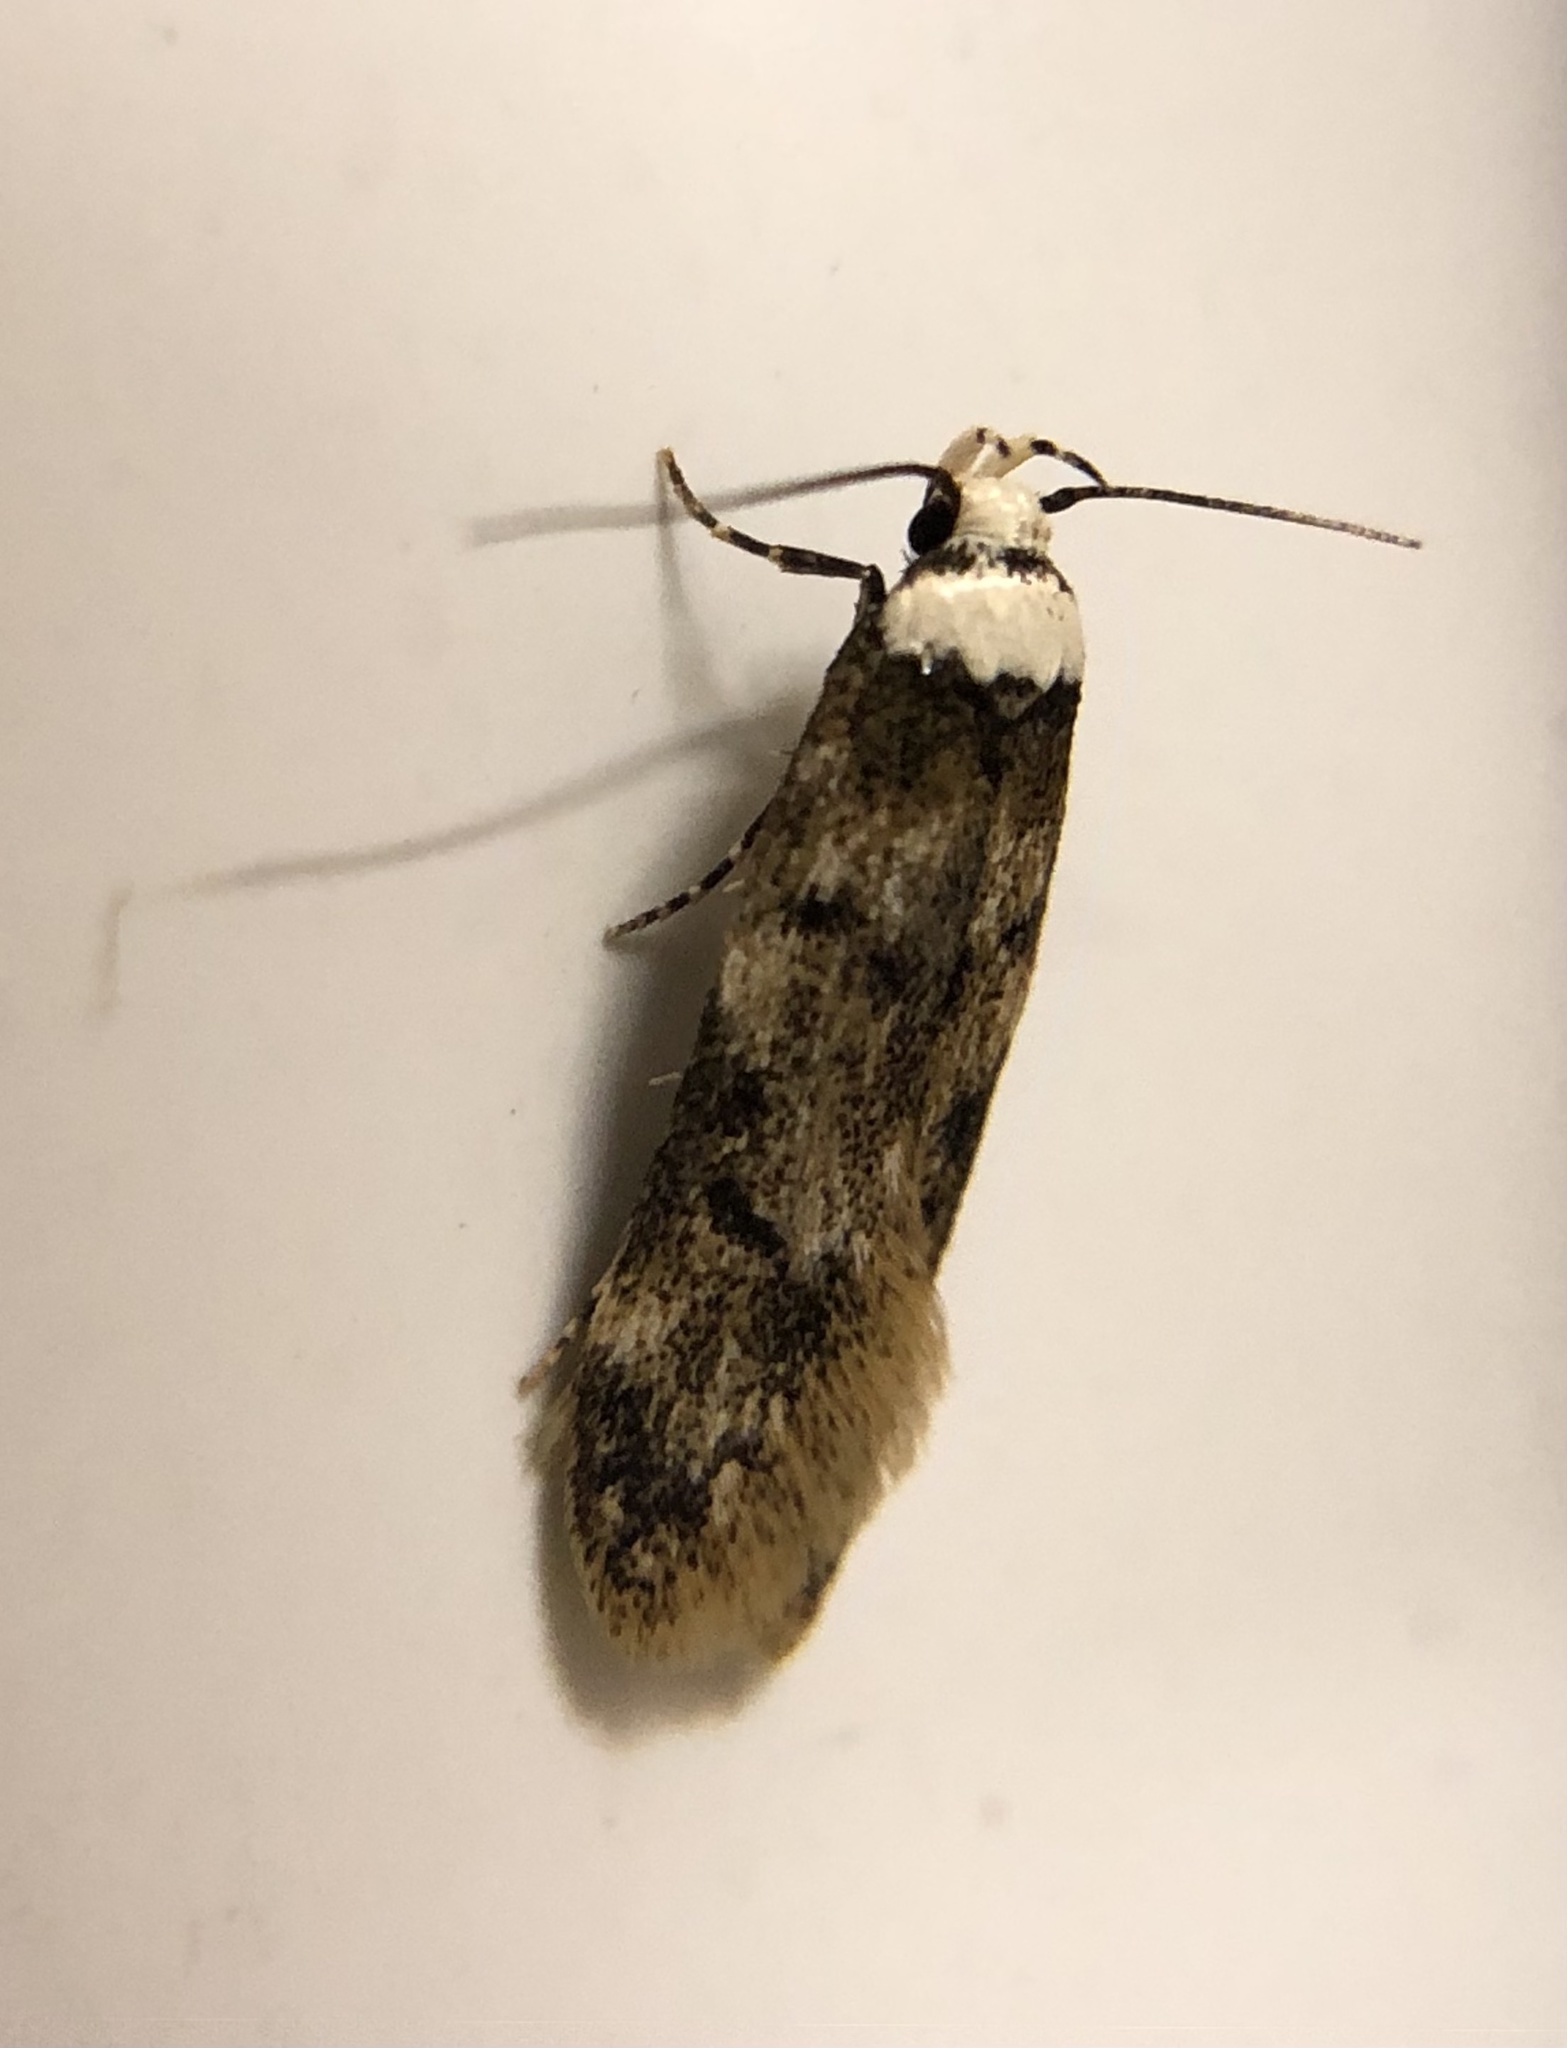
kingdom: Animalia
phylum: Arthropoda
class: Insecta
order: Lepidoptera
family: Oecophoridae
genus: Endrosis
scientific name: Endrosis sarcitrella
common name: White-shouldered house moth
